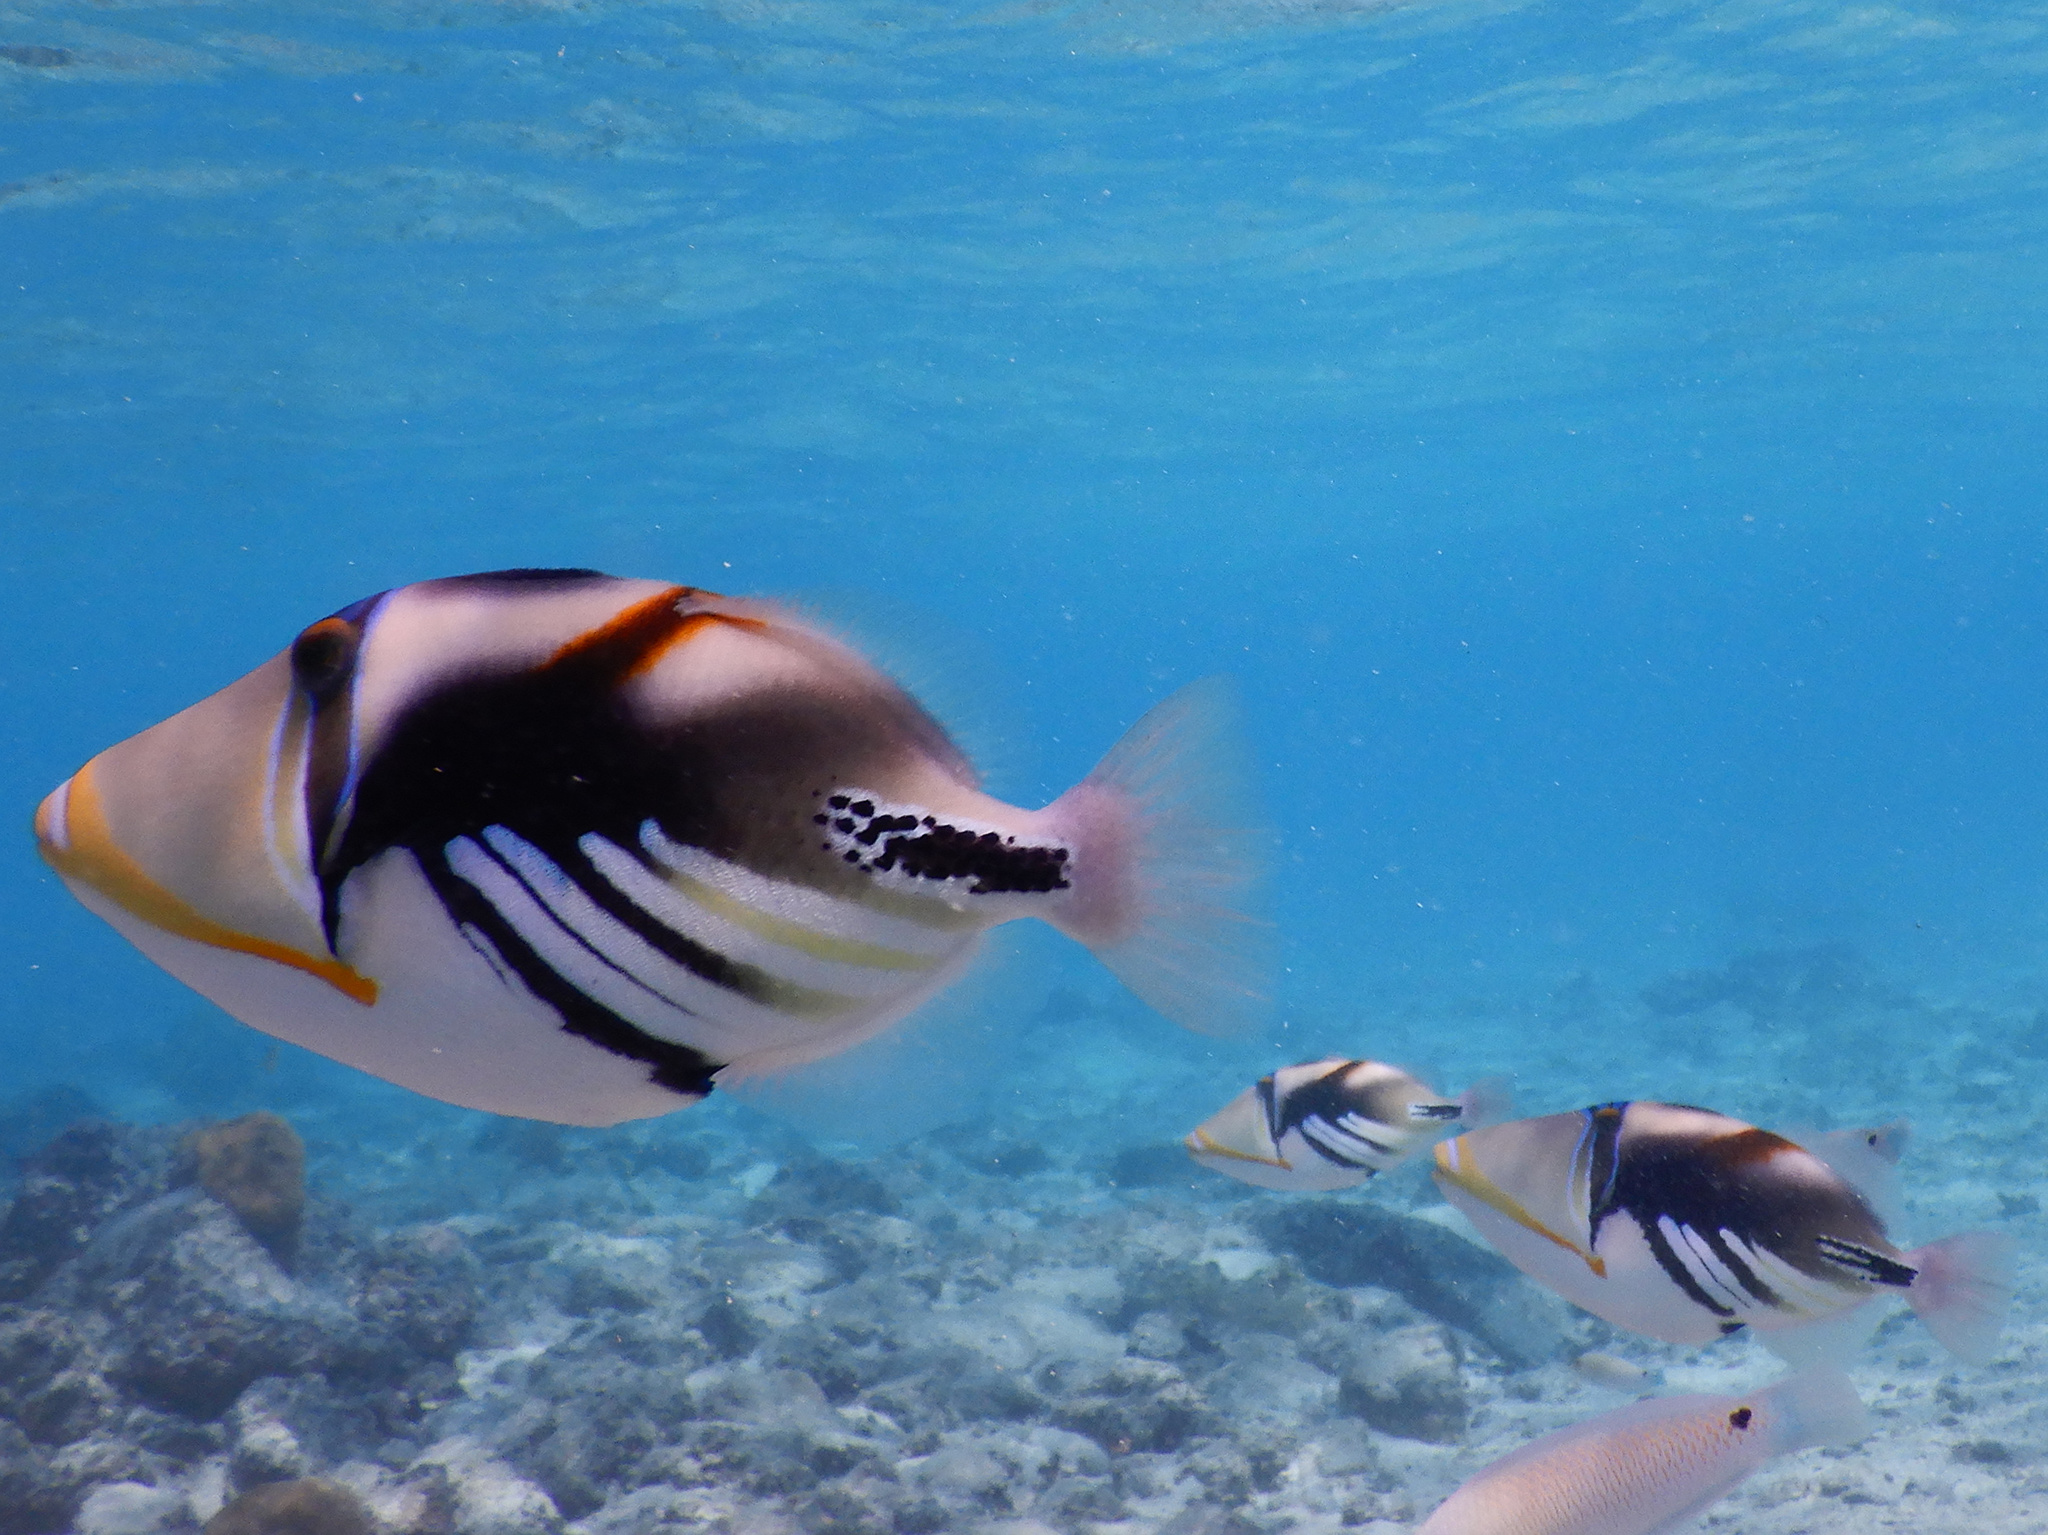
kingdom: Animalia
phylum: Chordata
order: Tetraodontiformes
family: Balistidae
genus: Rhinecanthus
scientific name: Rhinecanthus aculeatus
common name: White-banded triggerfish
